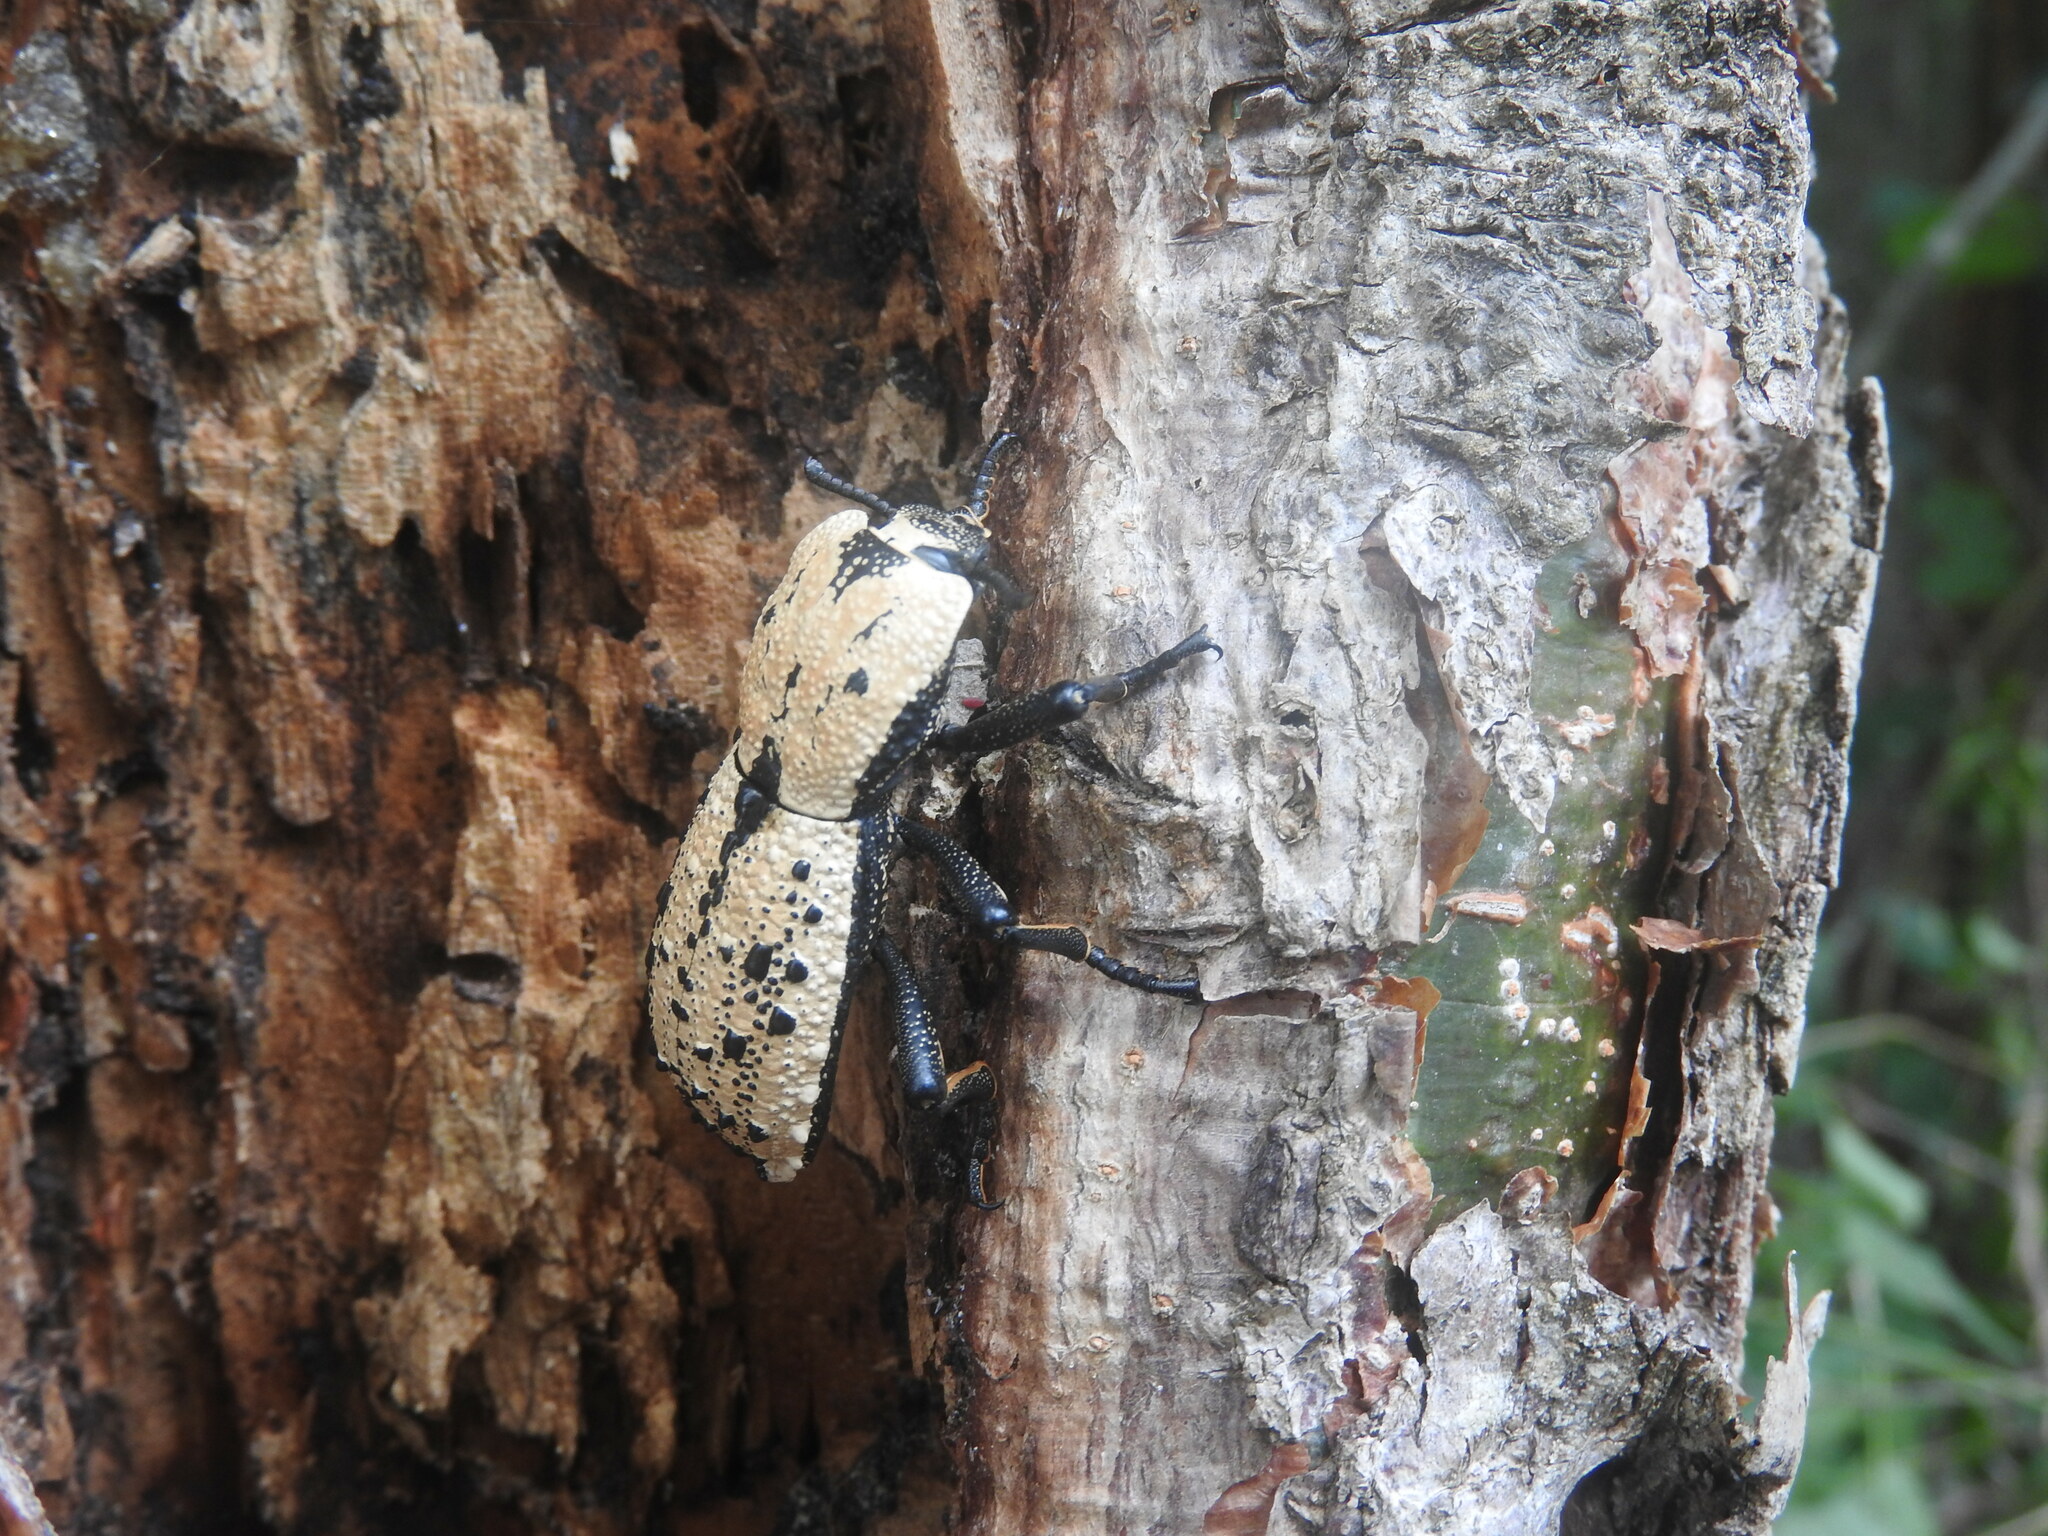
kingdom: Animalia
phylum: Arthropoda
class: Insecta
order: Coleoptera
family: Zopheridae
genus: Zopherus
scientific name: Zopherus
